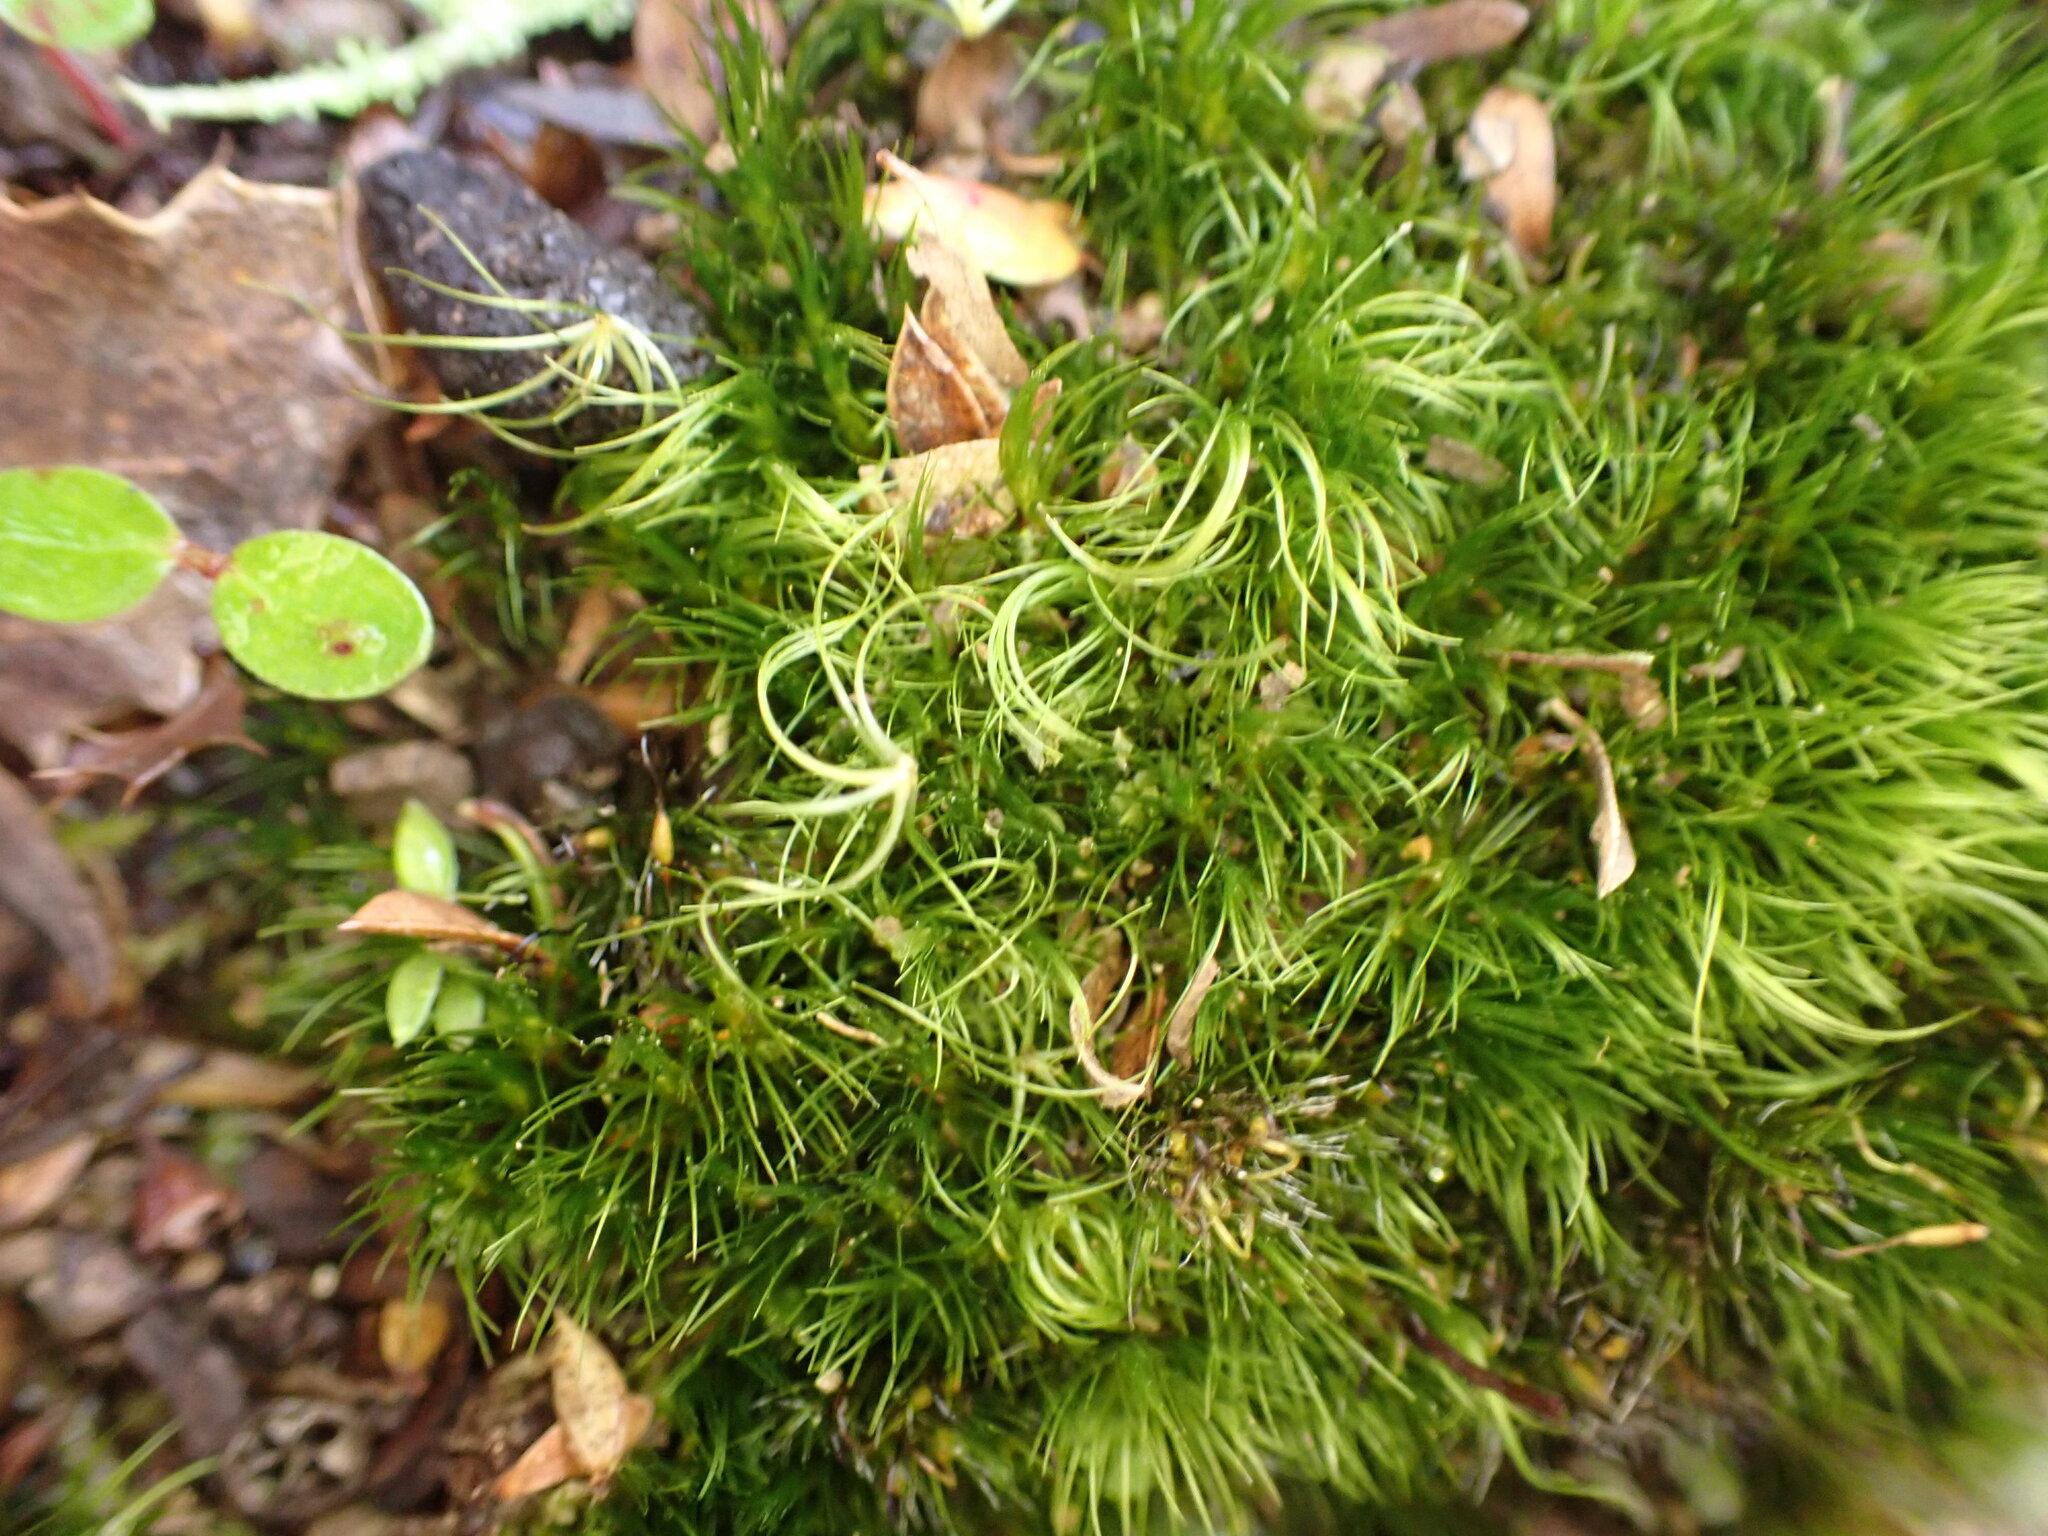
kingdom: Plantae
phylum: Bryophyta
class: Bryopsida
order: Dicranales
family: Leucobryaceae
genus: Campylopus
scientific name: Campylopus clavatus
